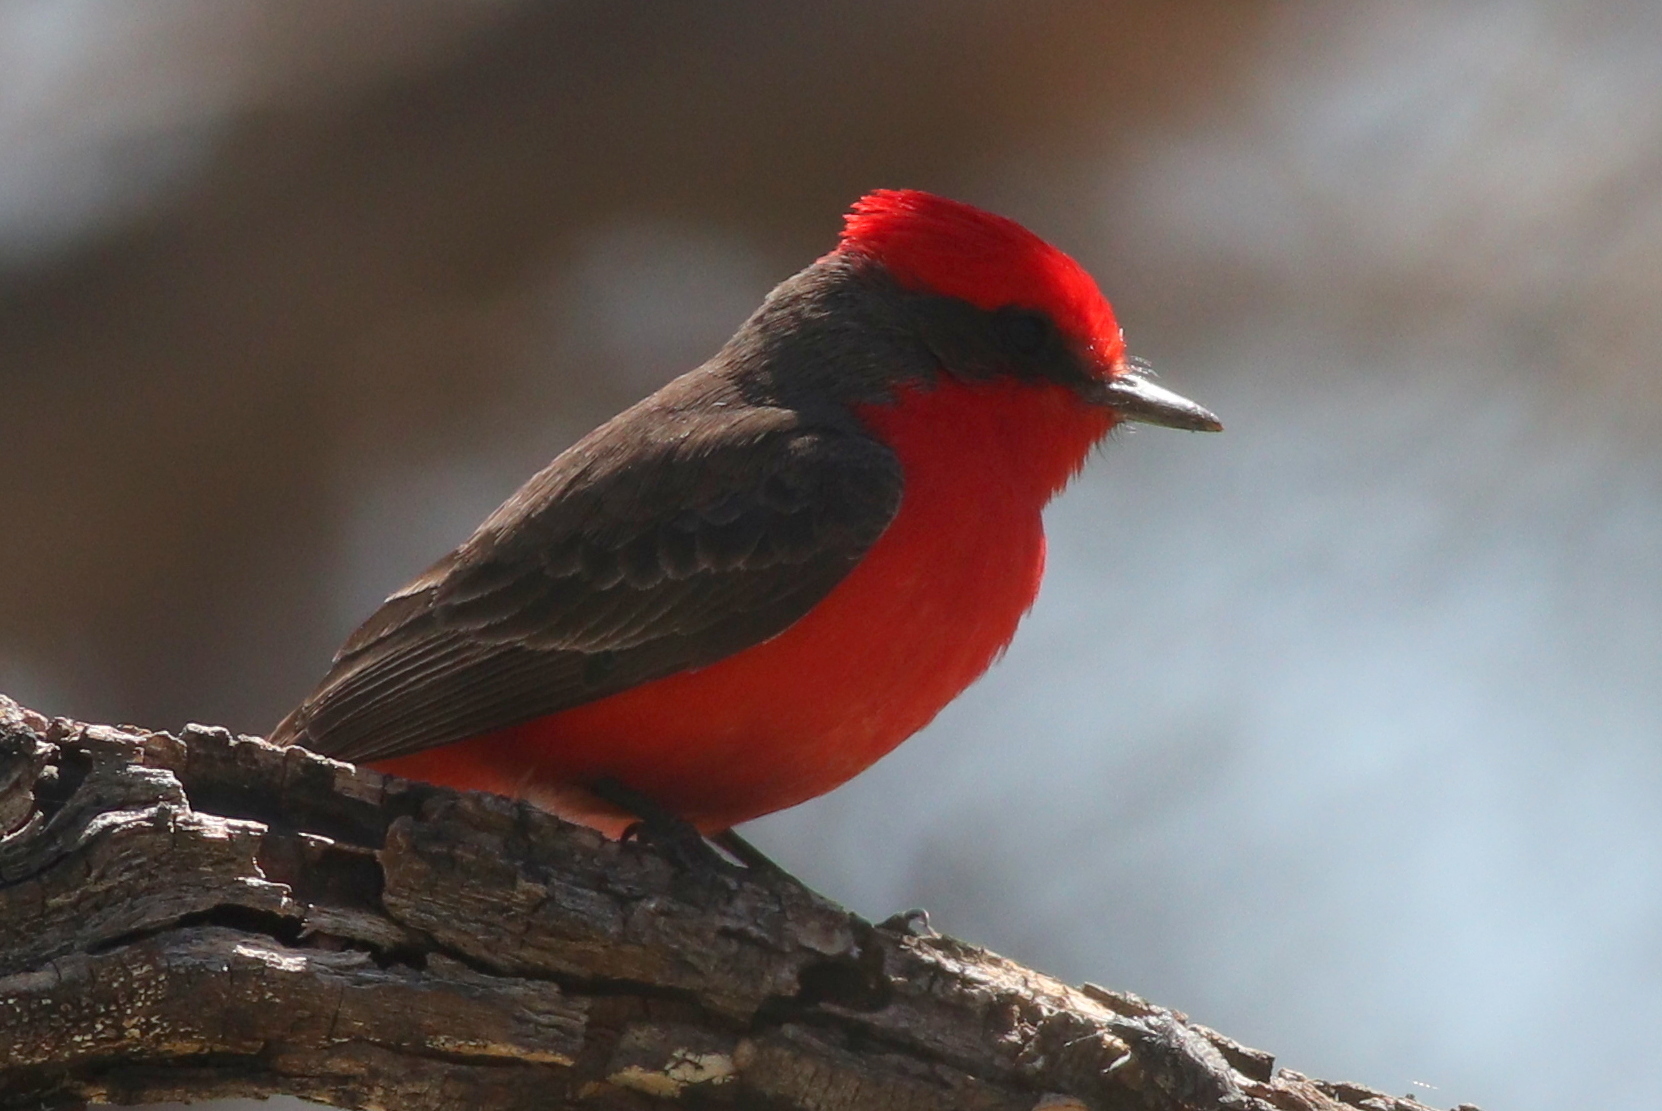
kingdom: Animalia
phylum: Chordata
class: Aves
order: Passeriformes
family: Tyrannidae
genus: Pyrocephalus
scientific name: Pyrocephalus rubinus
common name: Vermilion flycatcher
